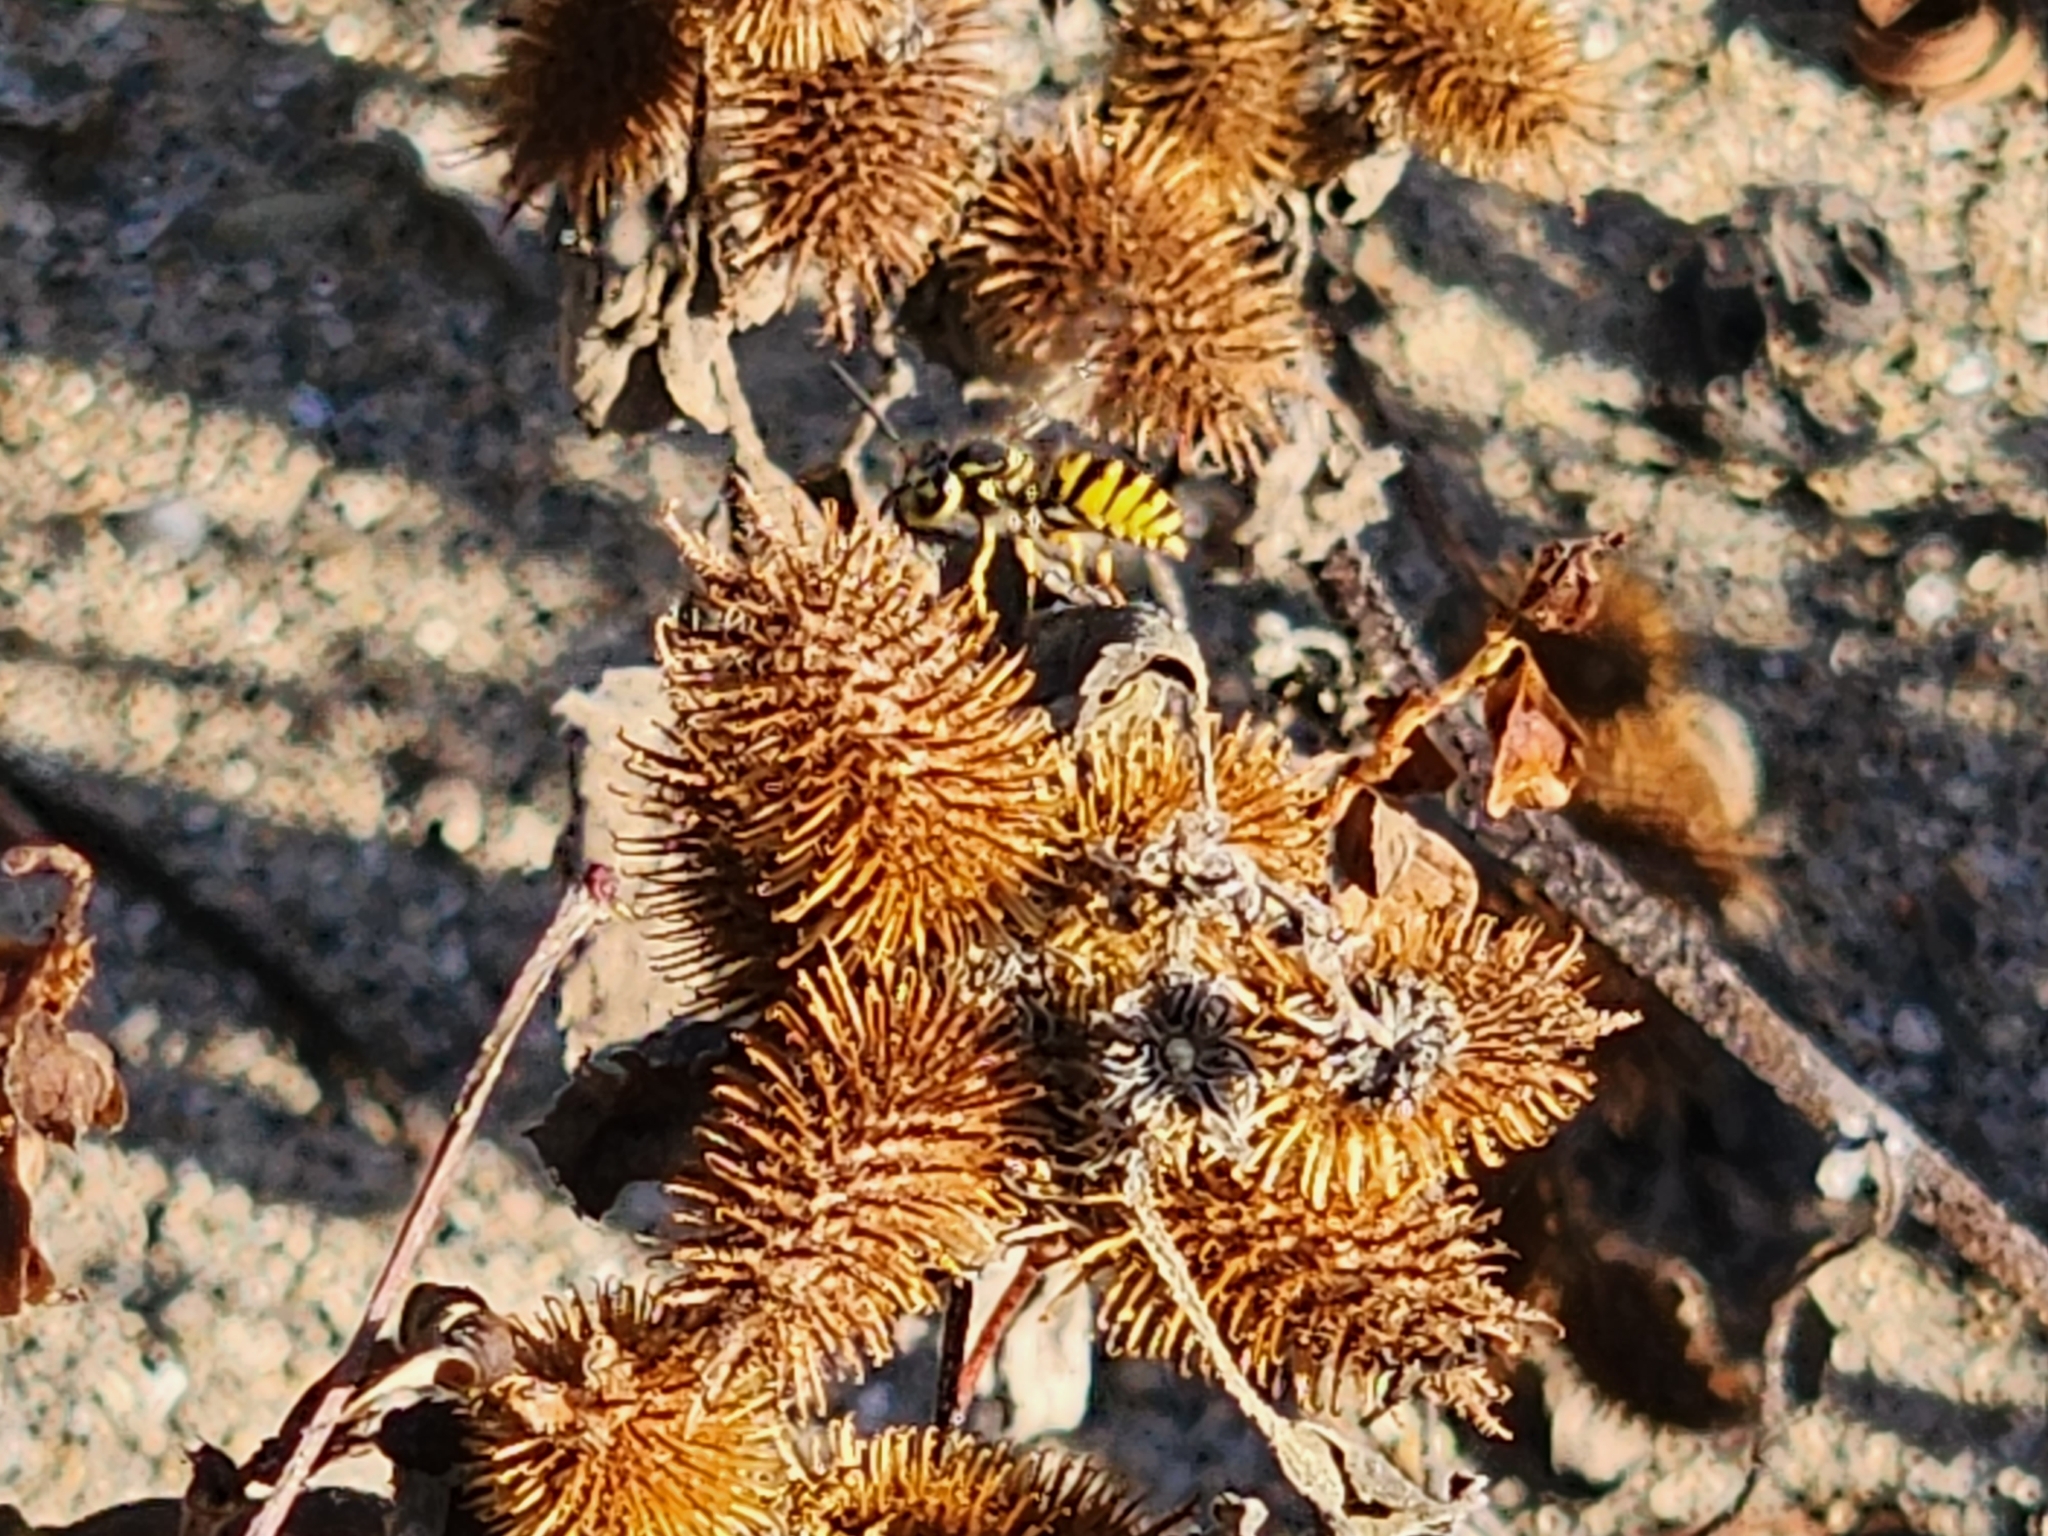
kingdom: Animalia
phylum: Arthropoda
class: Insecta
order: Hymenoptera
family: Vespidae
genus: Vespula
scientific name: Vespula maculifrons
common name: Eastern yellowjacket
